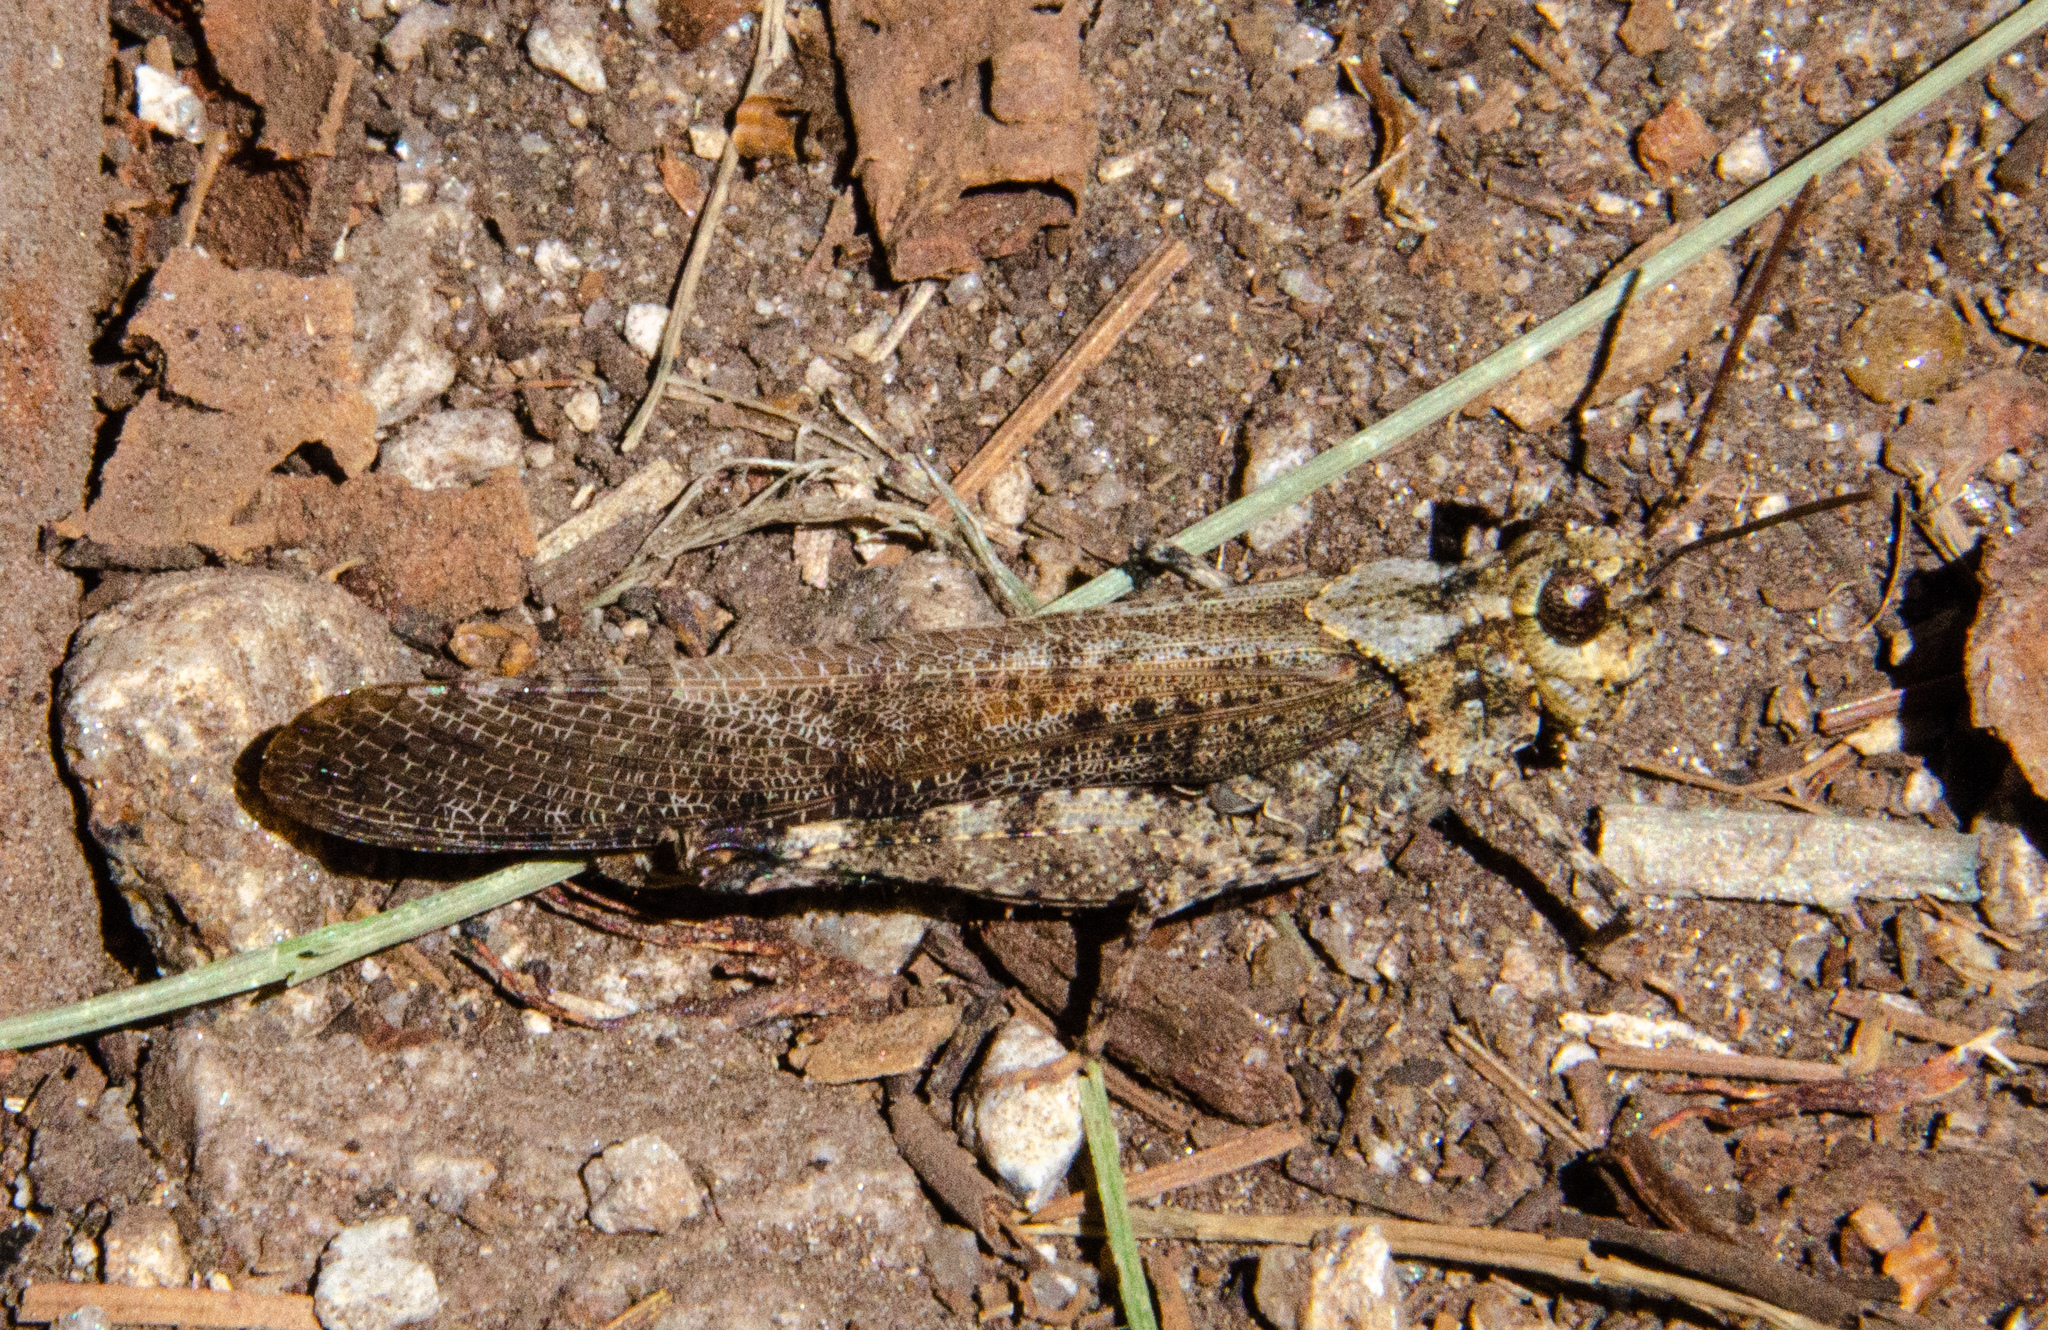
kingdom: Animalia
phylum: Arthropoda
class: Insecta
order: Orthoptera
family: Acrididae
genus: Trimerotropis
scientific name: Trimerotropis verruculata
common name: Crackling forest grasshopper
